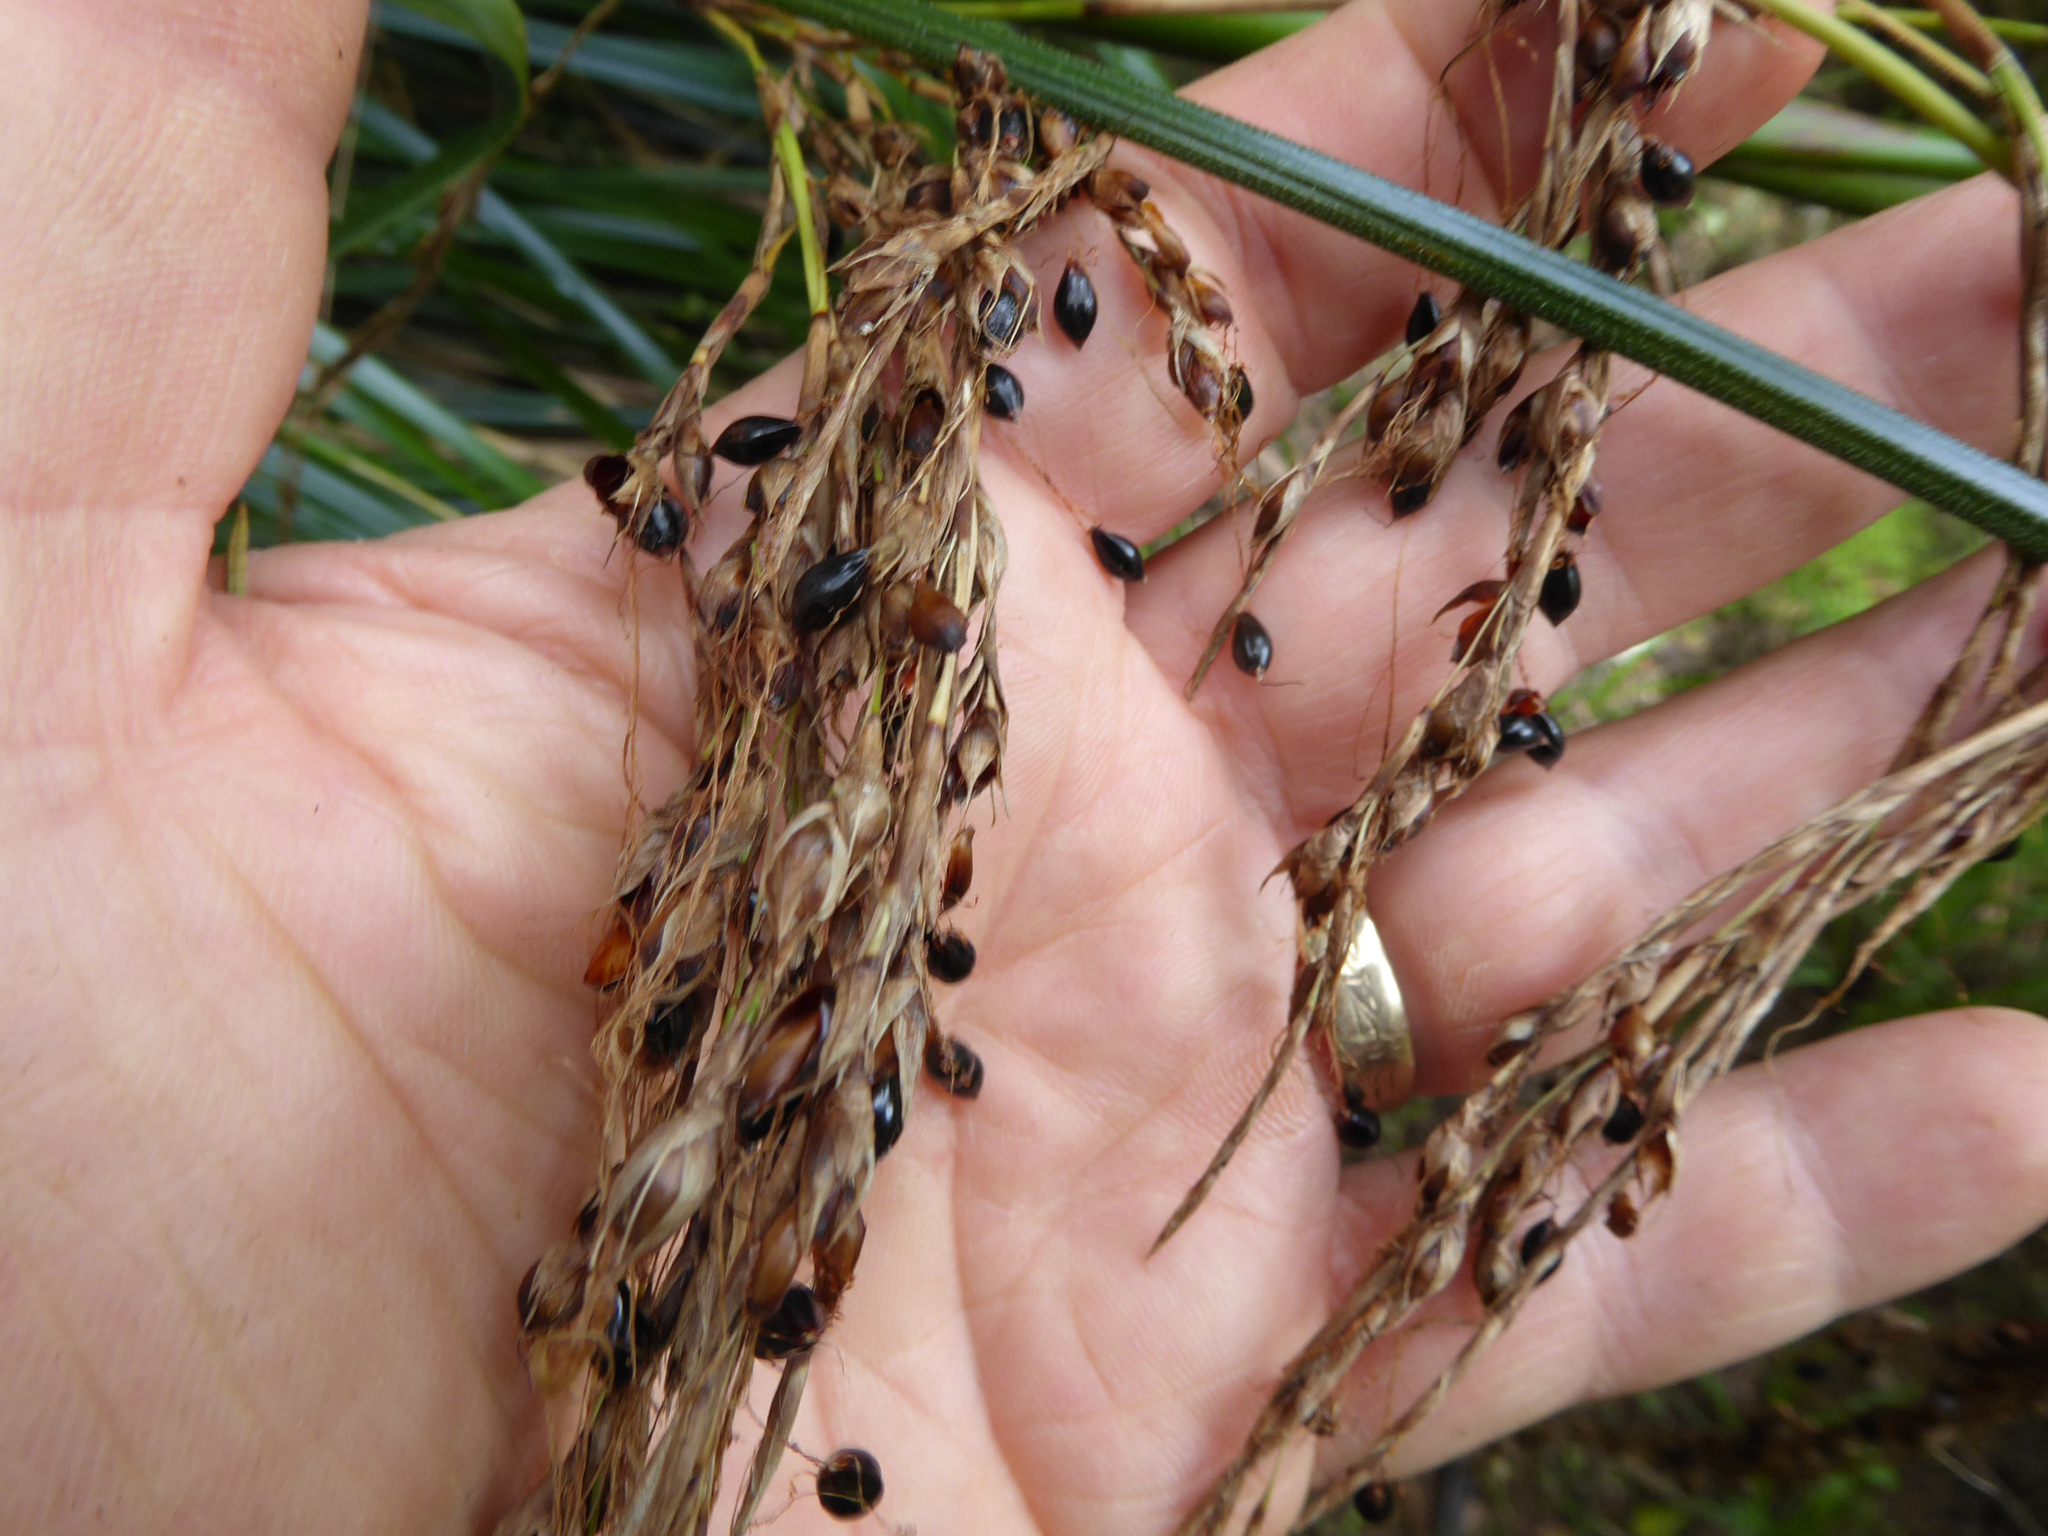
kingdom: Plantae
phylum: Tracheophyta
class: Liliopsida
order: Poales
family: Cyperaceae
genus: Gahnia
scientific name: Gahnia xanthocarpa
